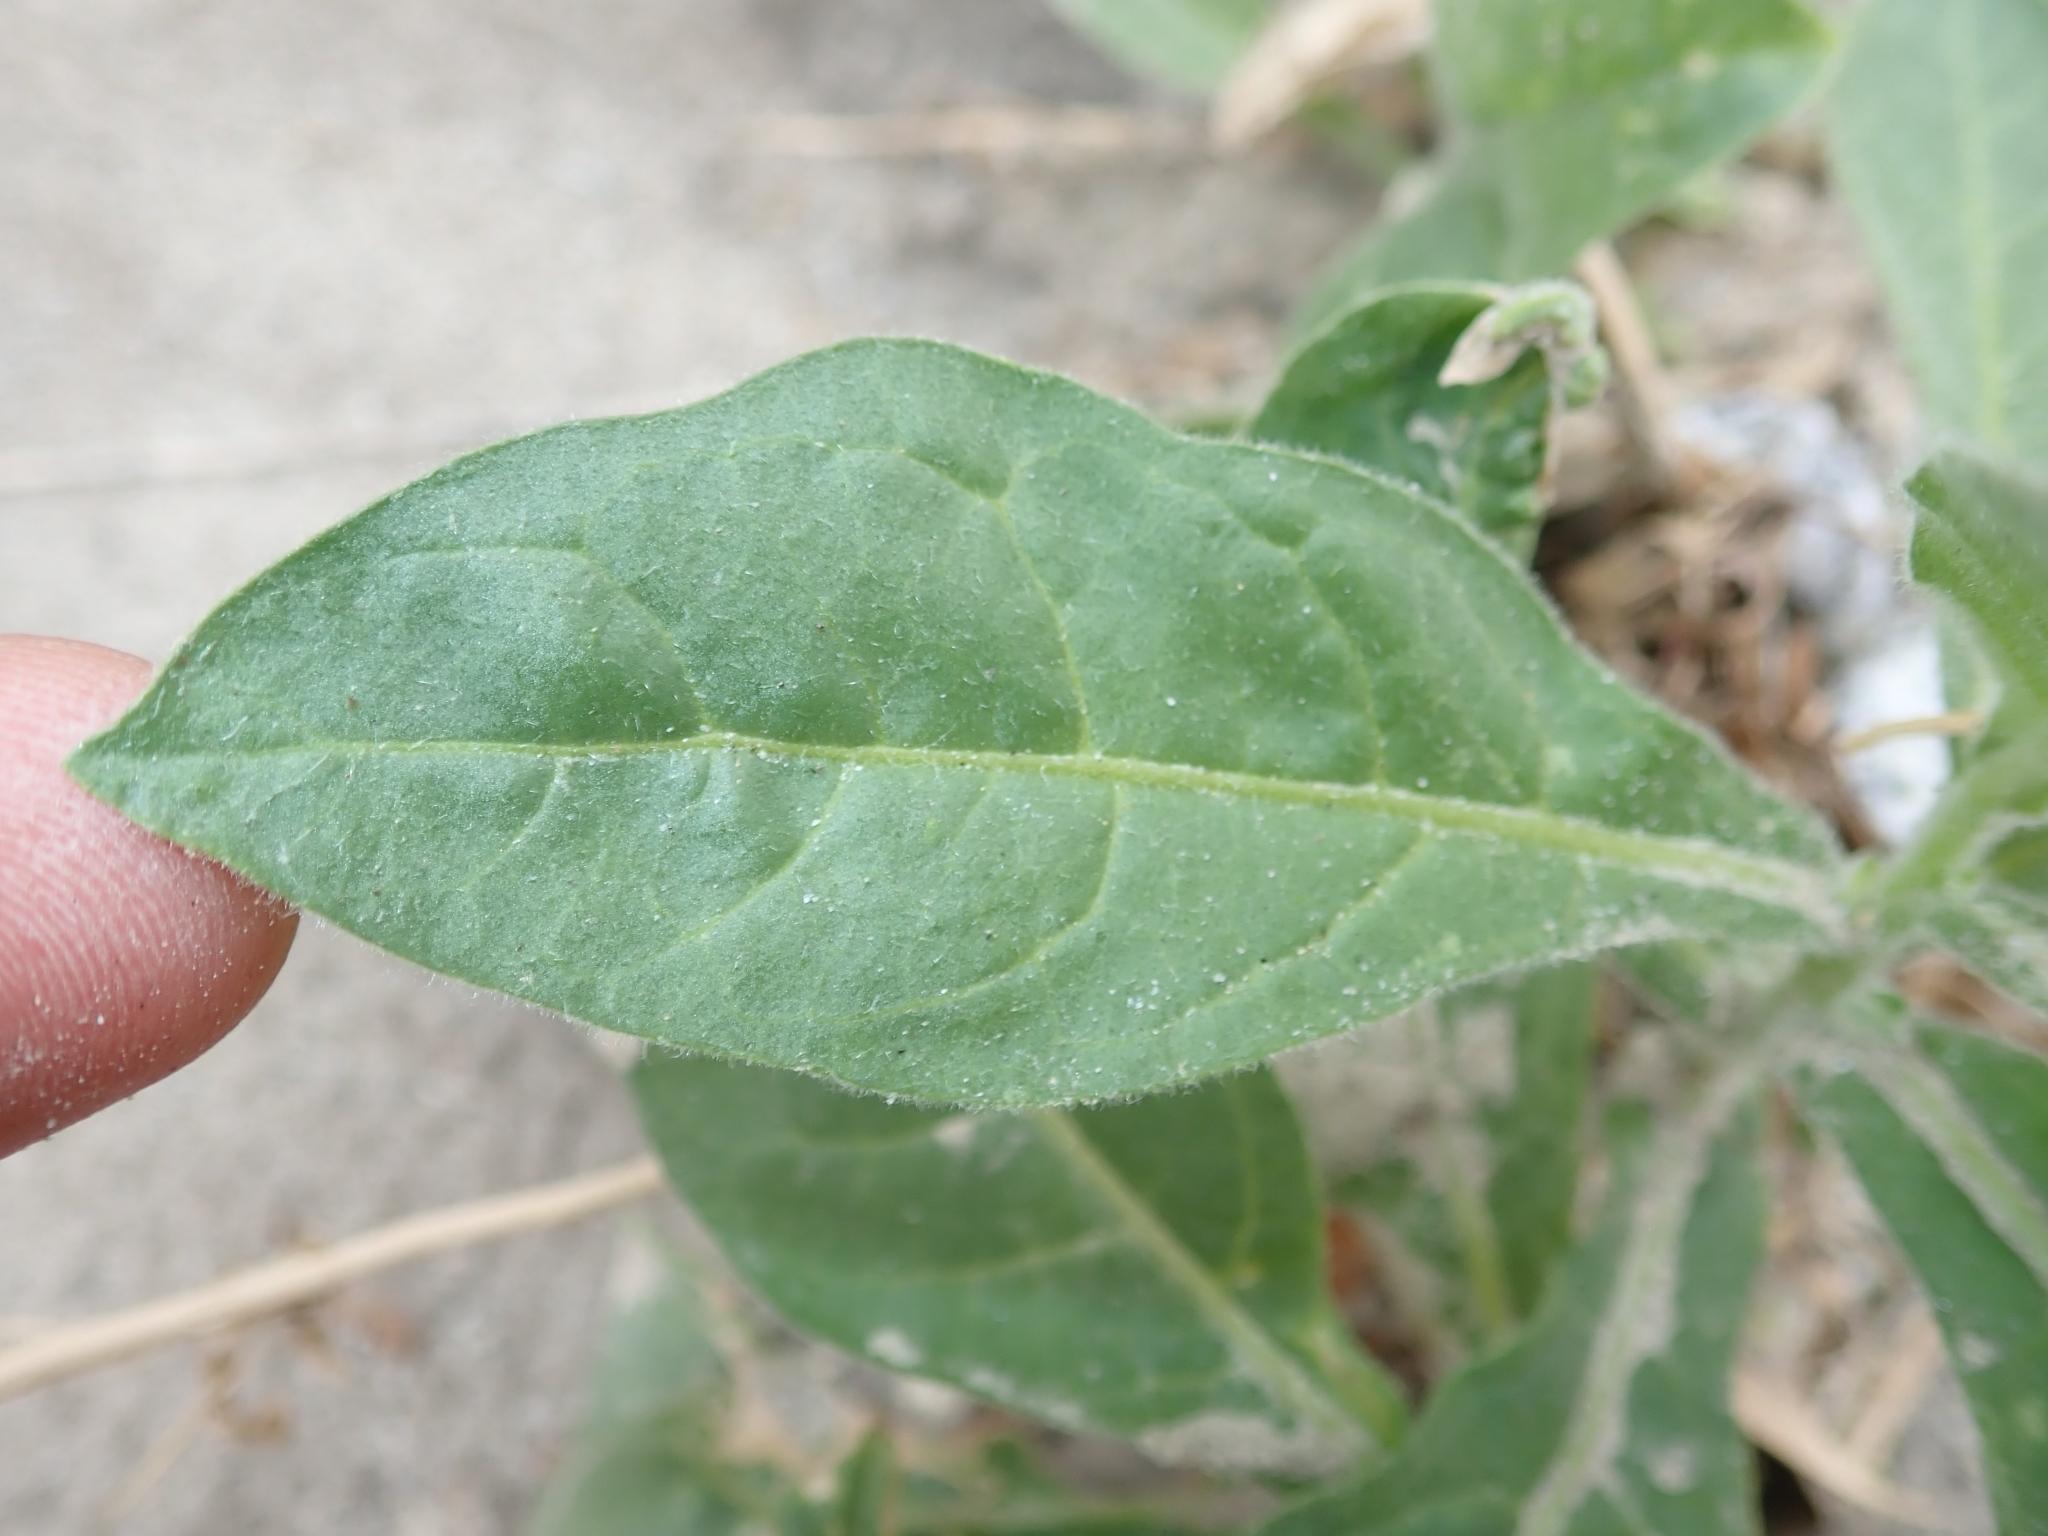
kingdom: Plantae
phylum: Tracheophyta
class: Magnoliopsida
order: Solanales
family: Solanaceae
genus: Nicotiana
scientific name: Nicotiana obtusifolia
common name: Desert tobacco
